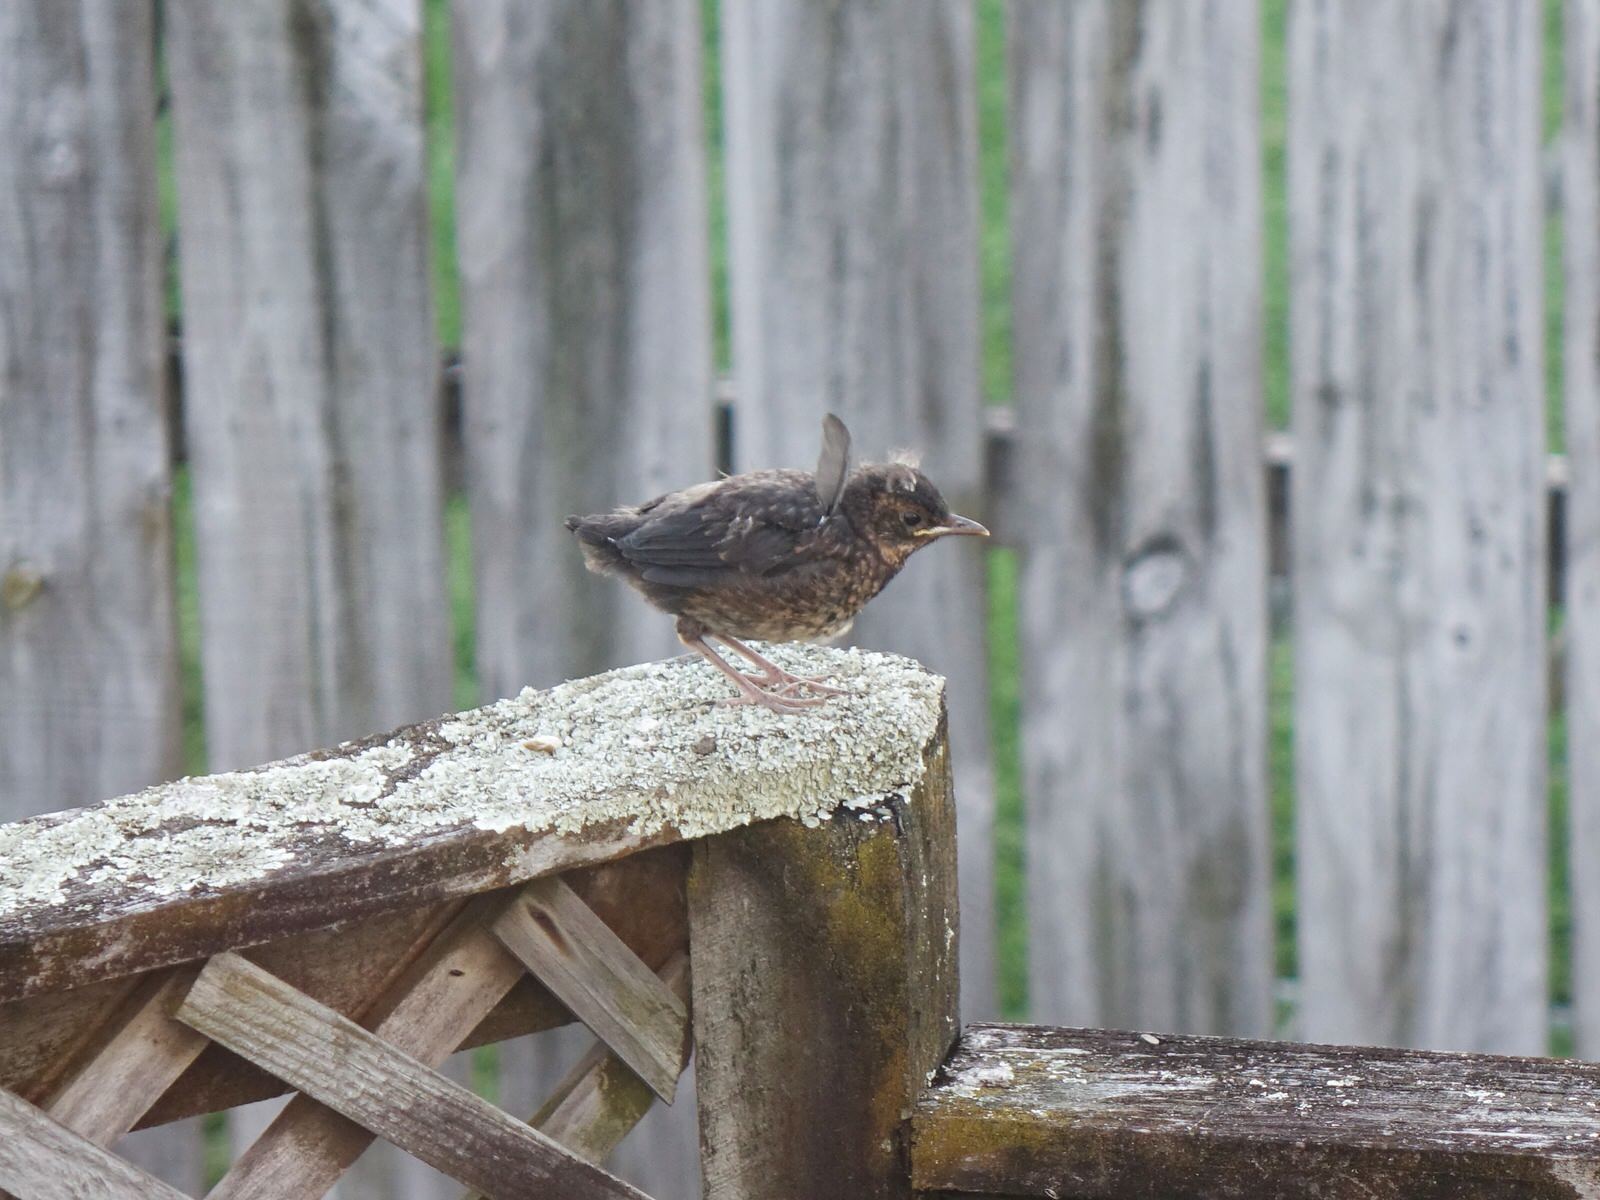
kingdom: Animalia
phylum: Chordata
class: Aves
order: Passeriformes
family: Turdidae
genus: Turdus
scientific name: Turdus merula
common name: Common blackbird
